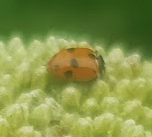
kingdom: Animalia
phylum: Arthropoda
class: Insecta
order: Coleoptera
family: Coccinellidae
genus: Hippodamia
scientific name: Hippodamia variegata
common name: Ladybird beetle
